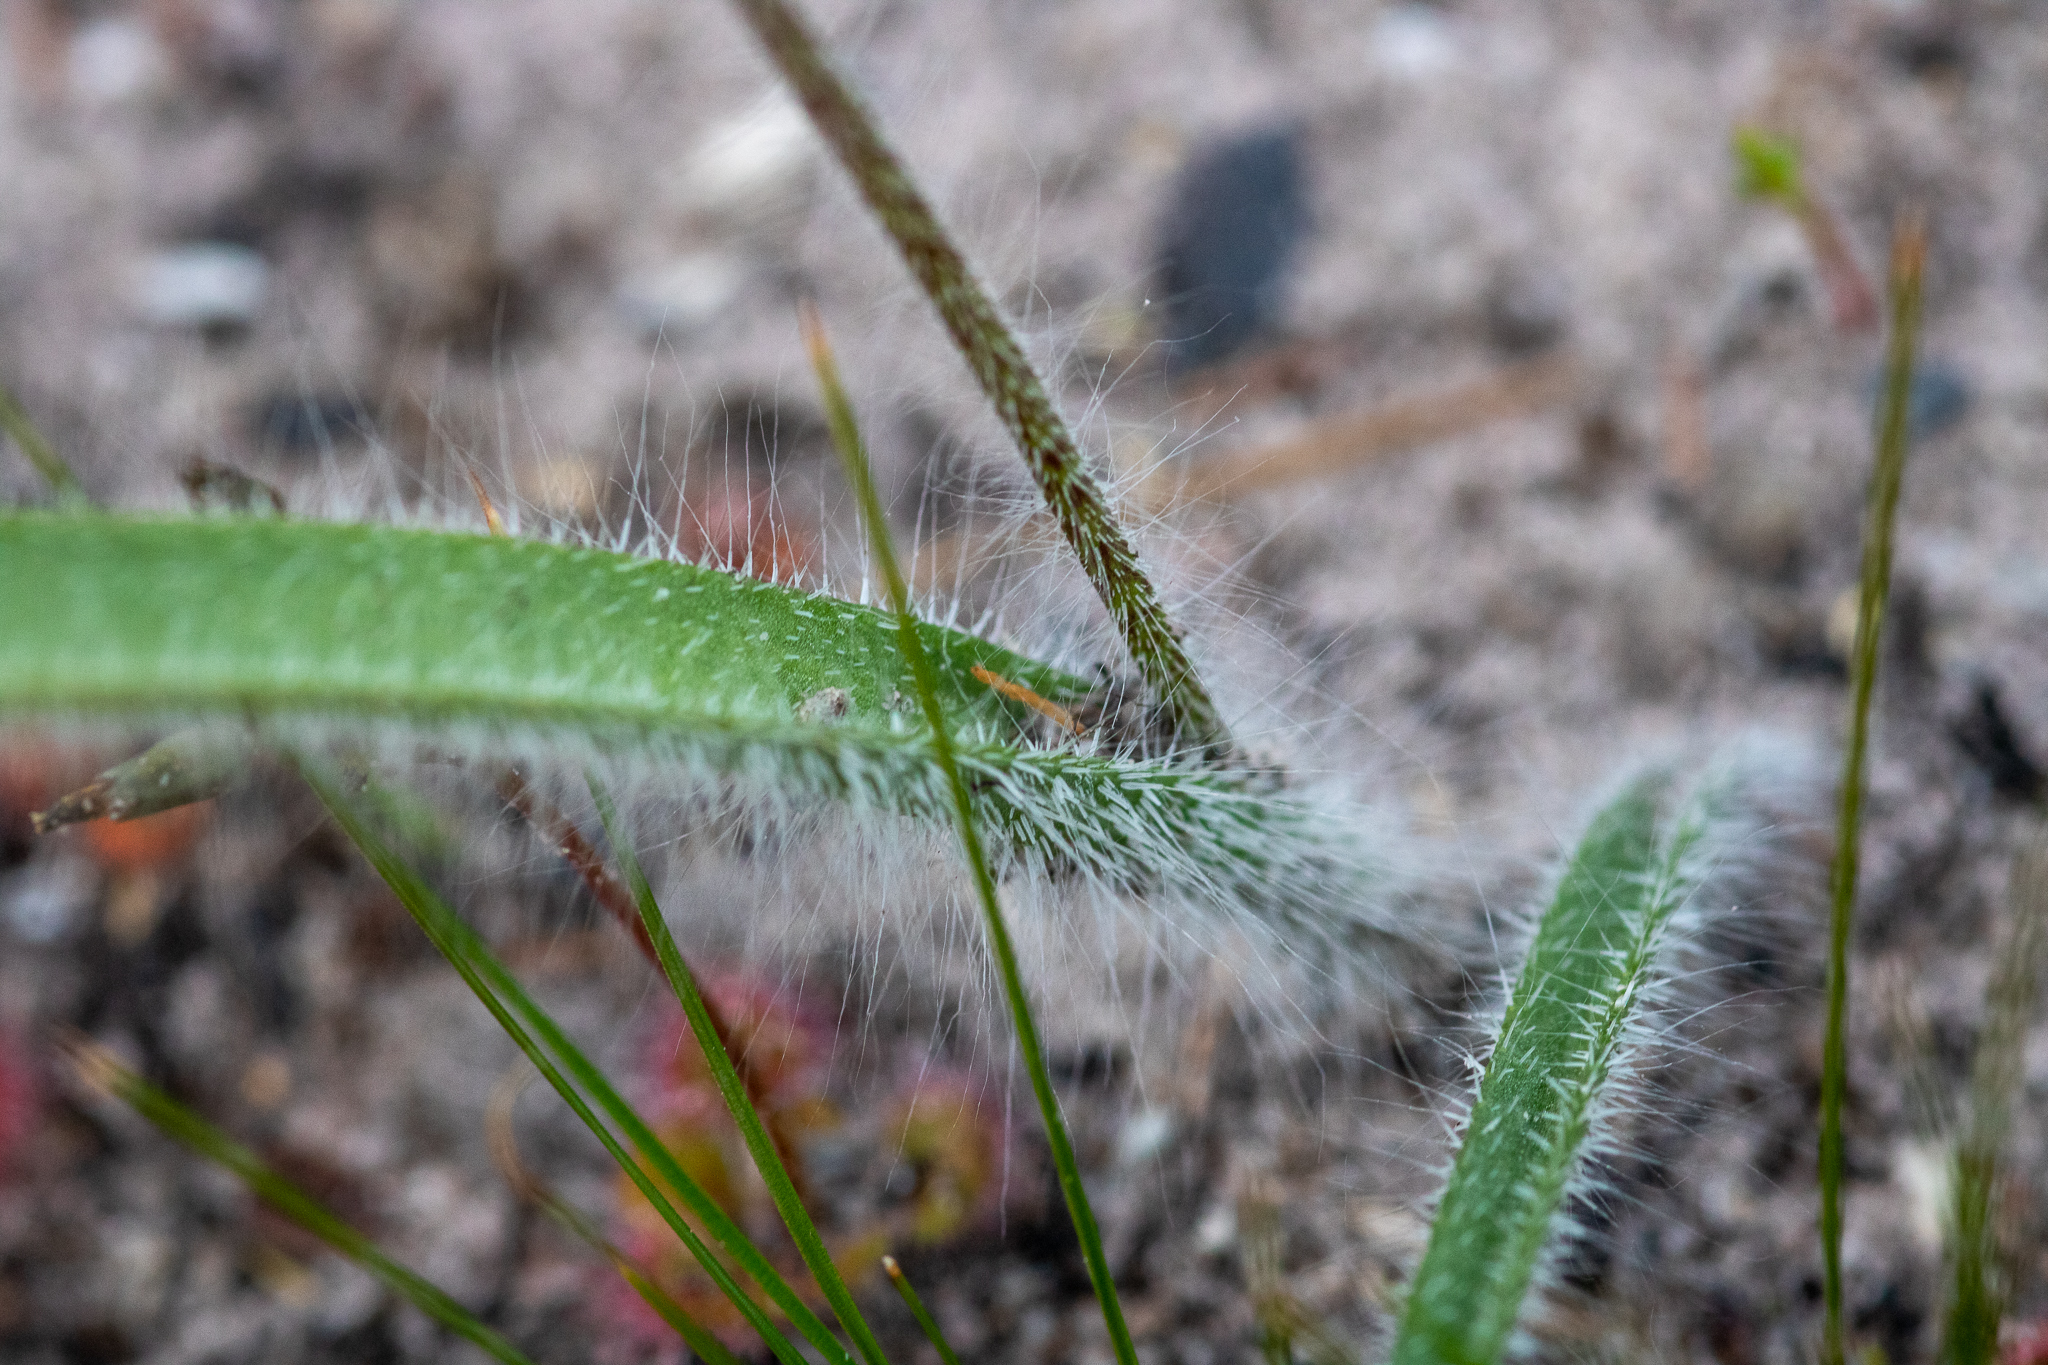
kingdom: Plantae
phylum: Tracheophyta
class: Liliopsida
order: Asparagales
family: Orchidaceae
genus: Caladenia
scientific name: Caladenia pectinata
